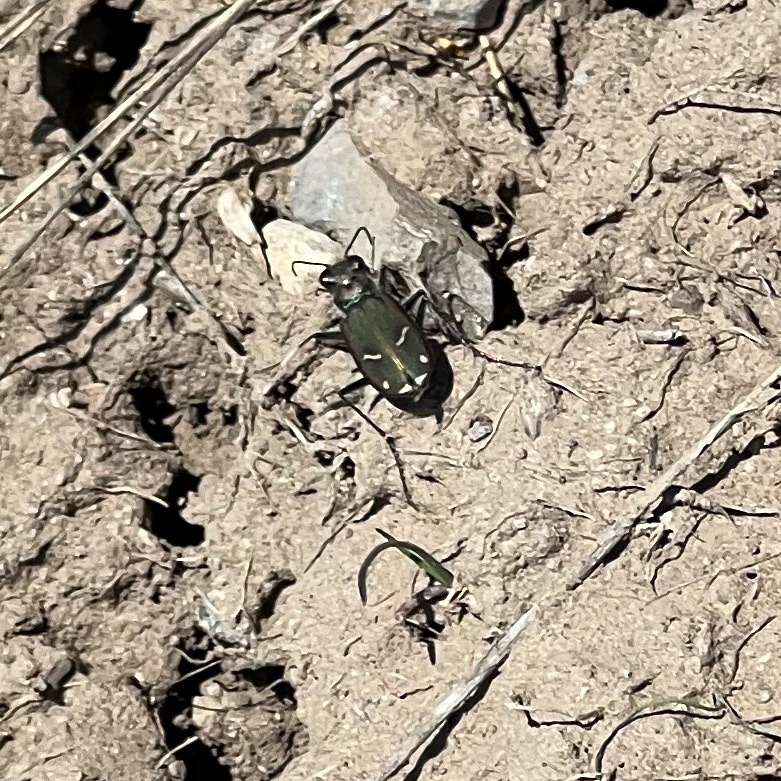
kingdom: Animalia
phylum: Arthropoda
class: Insecta
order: Coleoptera
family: Carabidae
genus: Cicindela
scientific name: Cicindela purpurea
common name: Cow path tiger beetle
